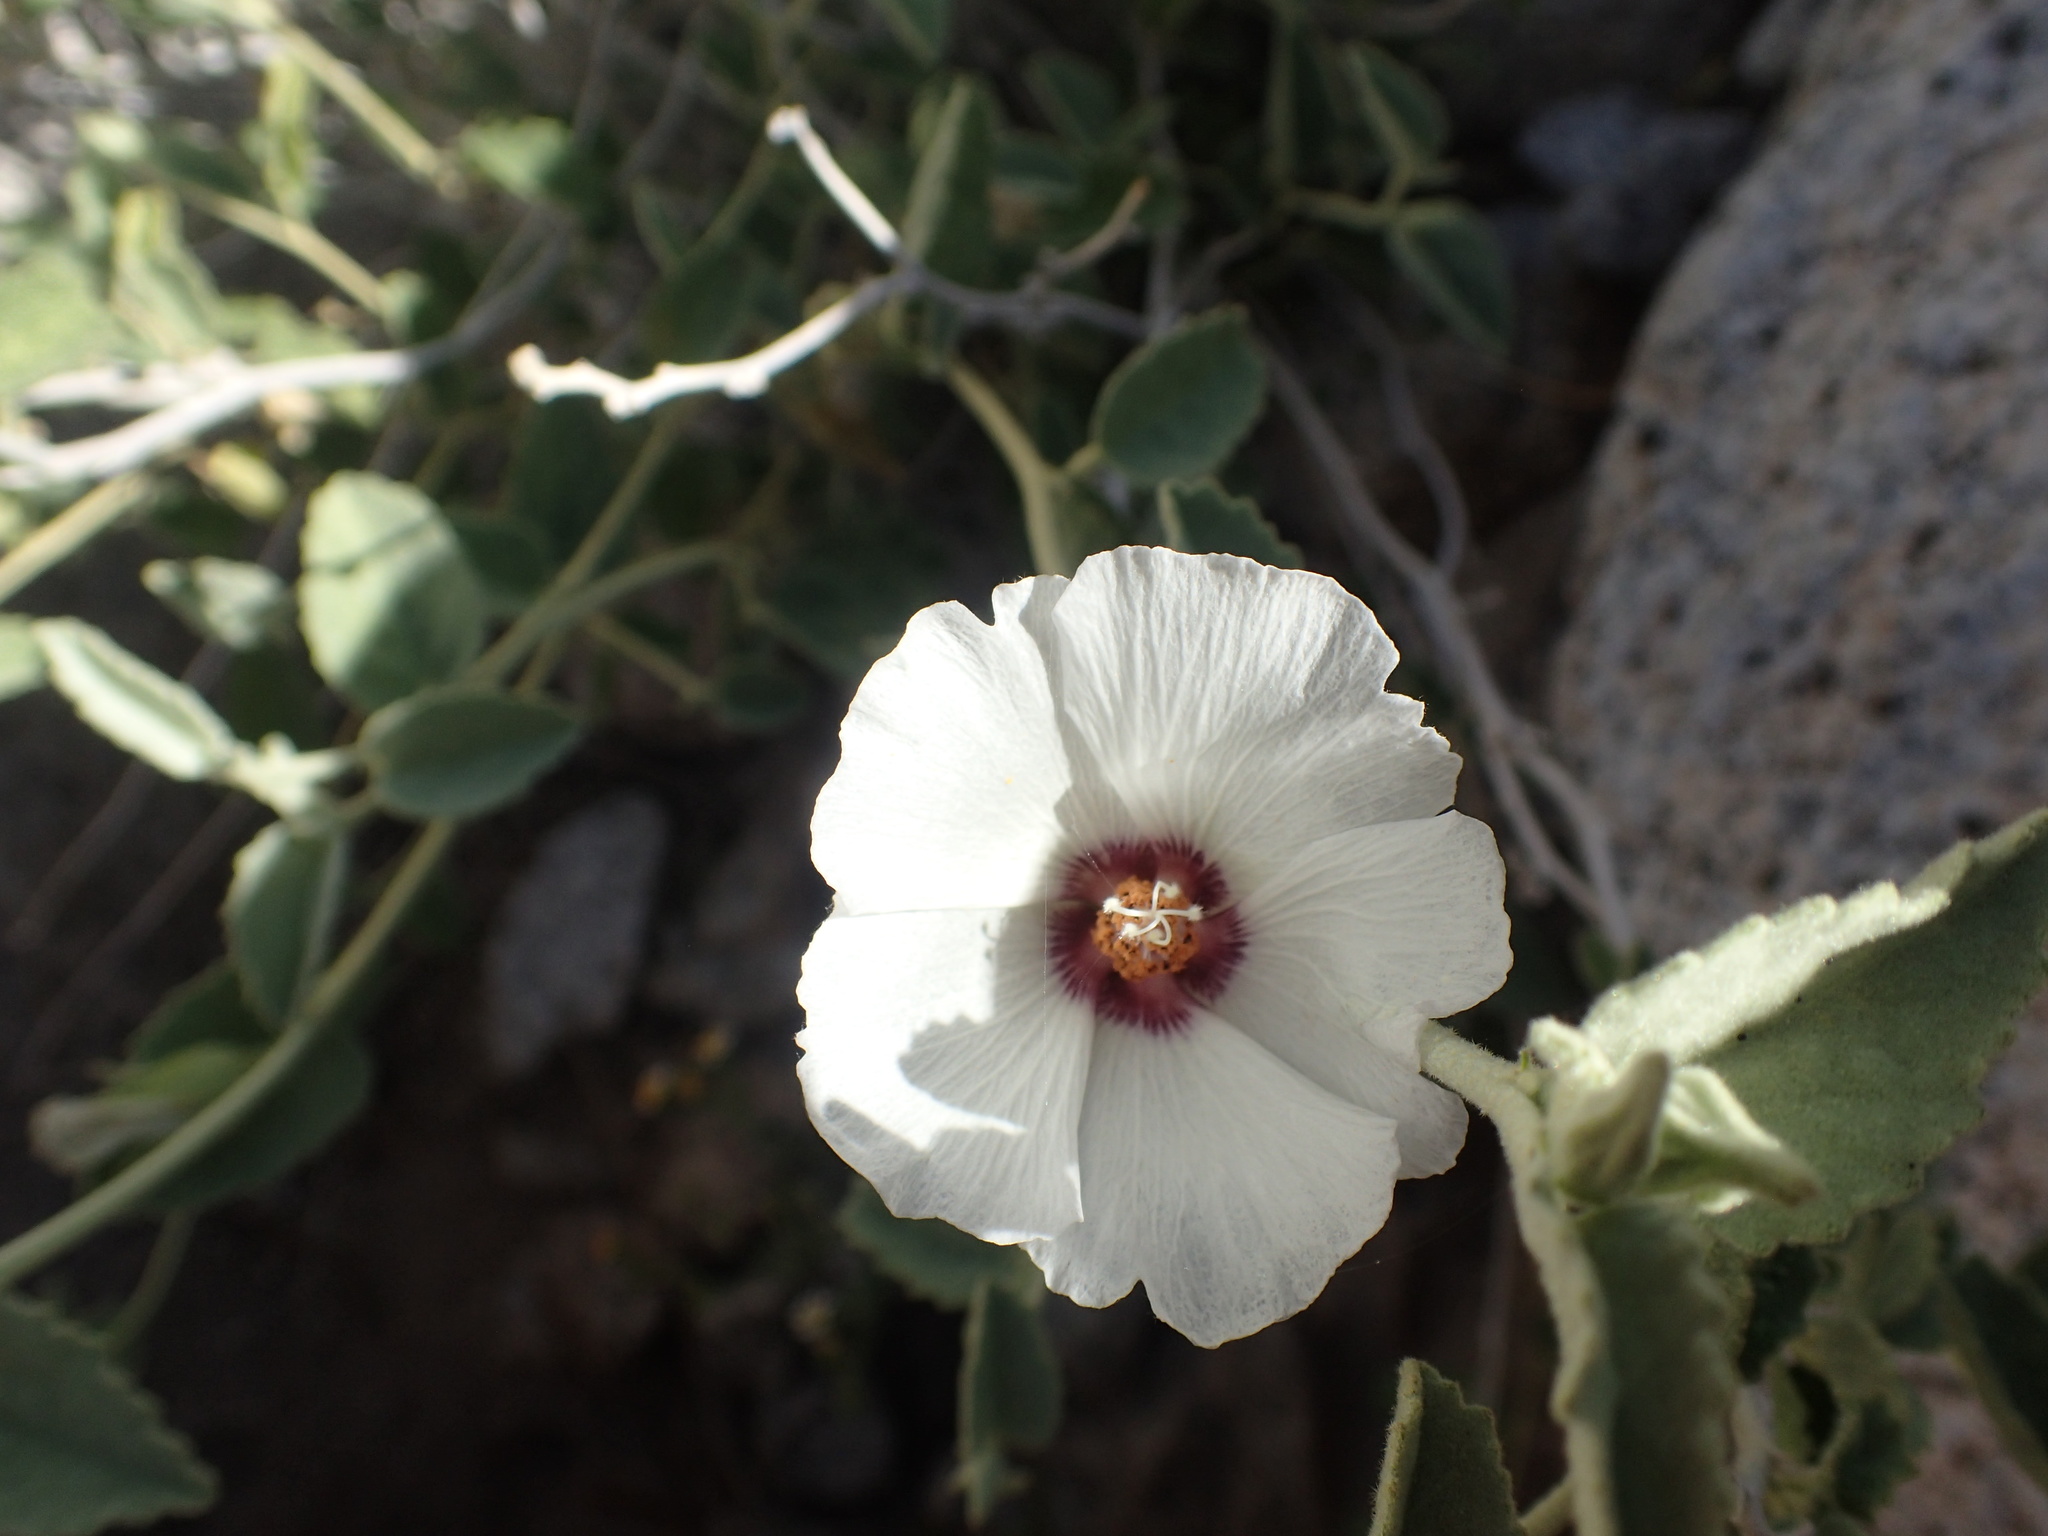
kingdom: Plantae
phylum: Tracheophyta
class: Magnoliopsida
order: Malvales
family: Malvaceae
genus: Hibiscus
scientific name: Hibiscus denudatus
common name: Paleface
